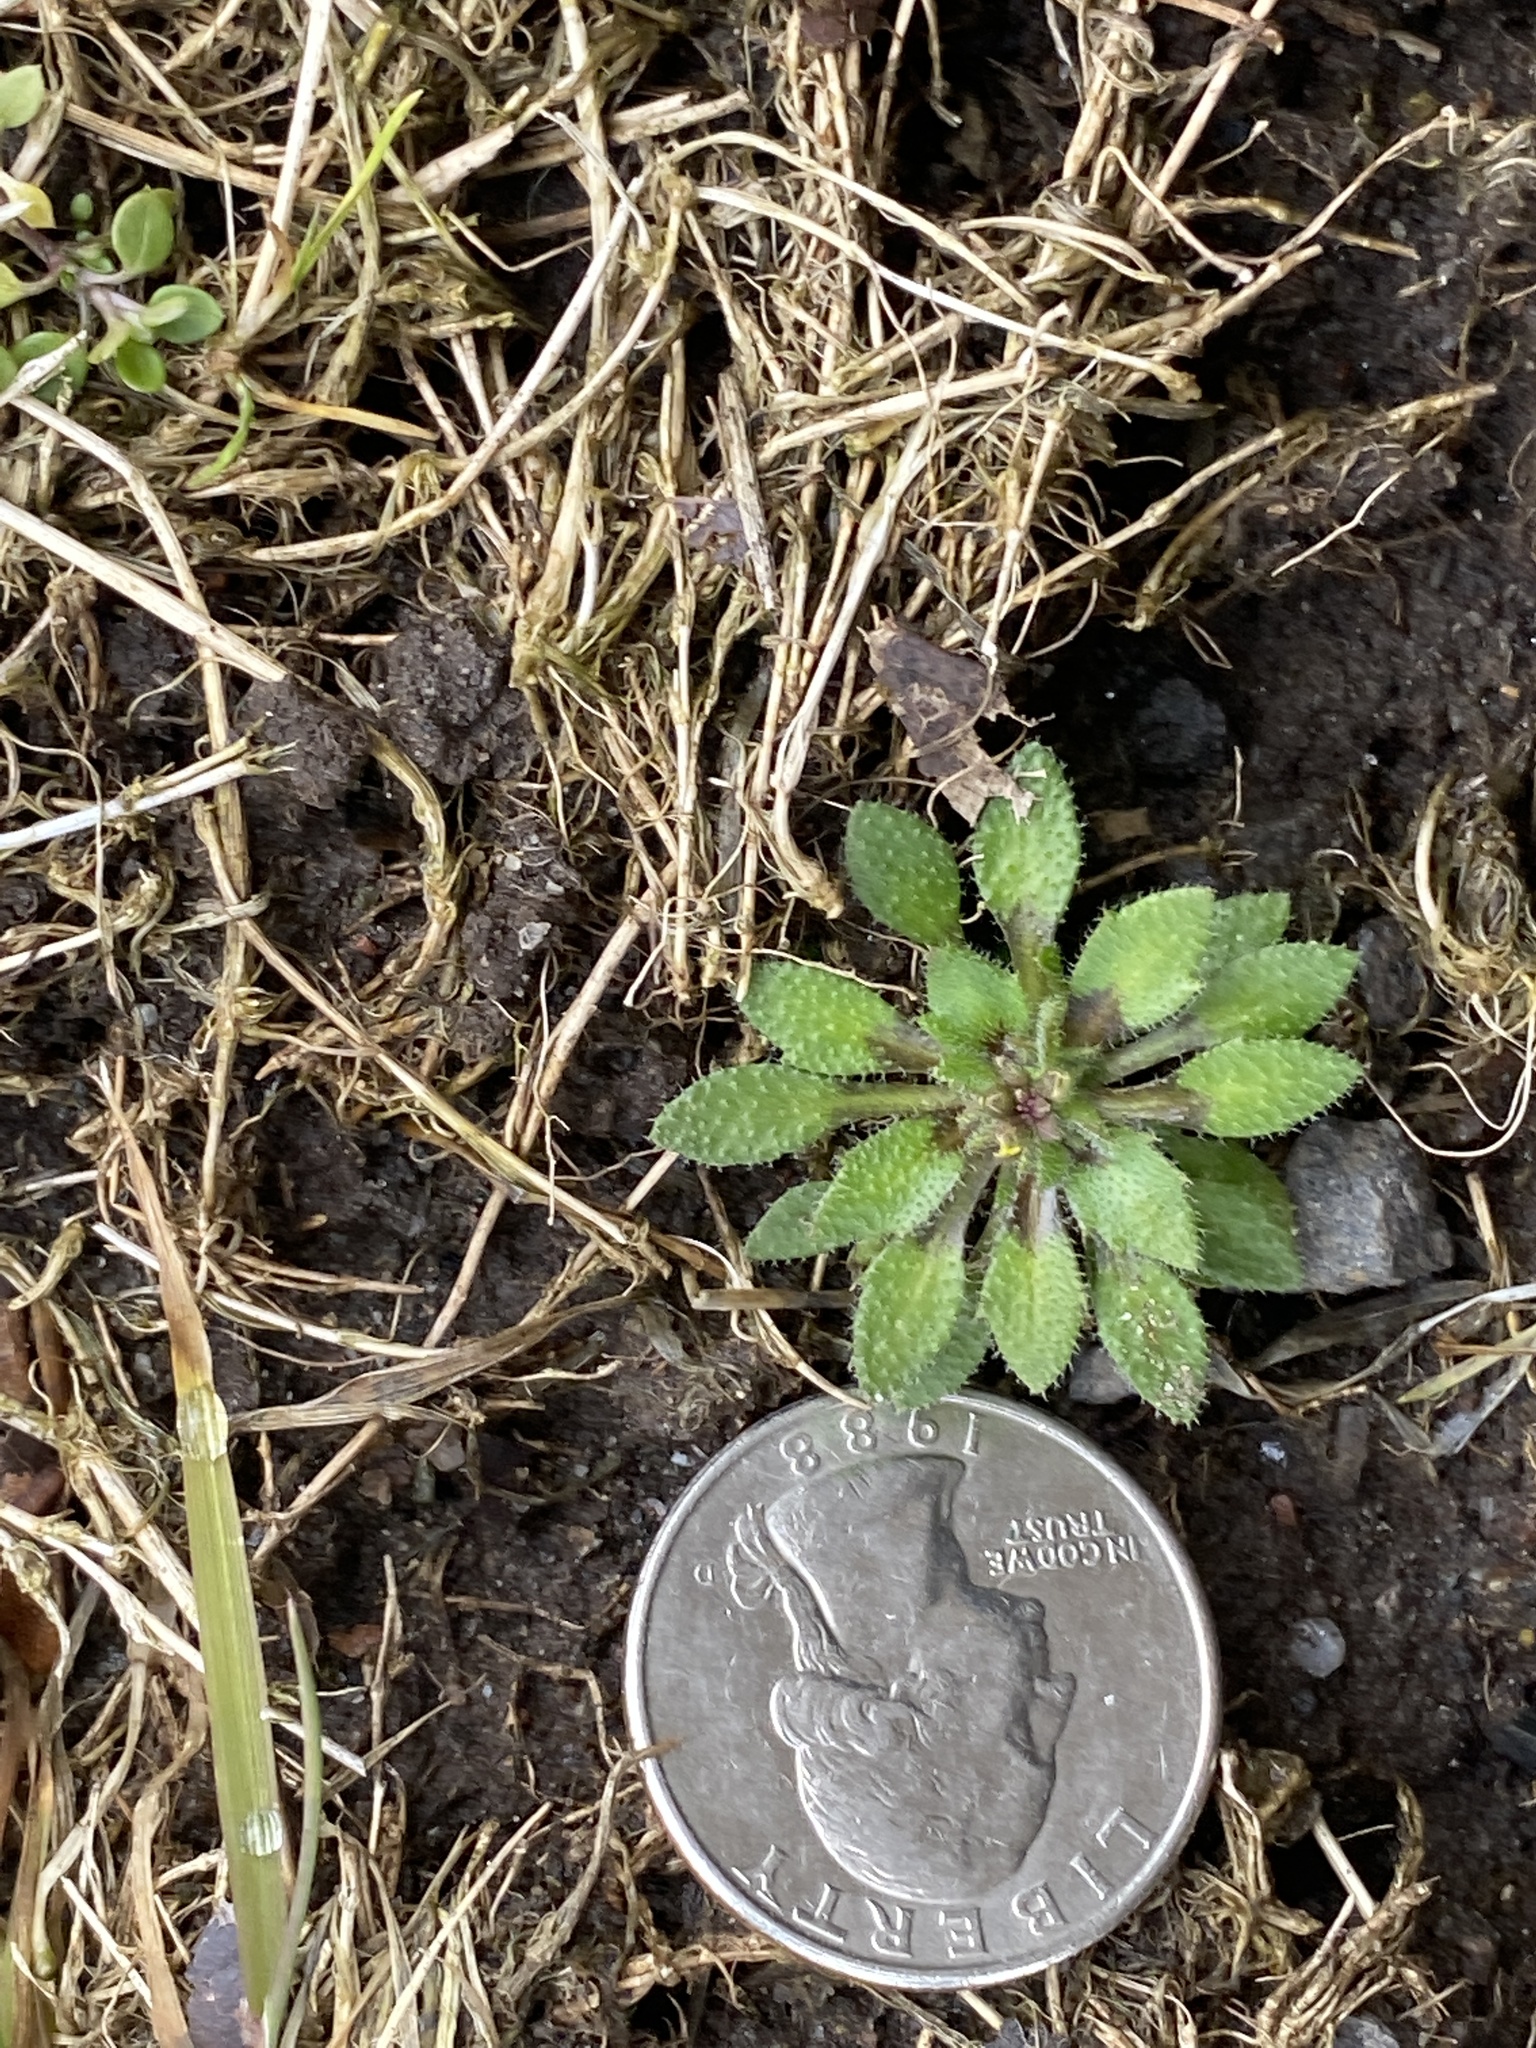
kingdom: Plantae
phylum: Tracheophyta
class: Magnoliopsida
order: Brassicales
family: Brassicaceae
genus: Draba
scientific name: Draba verna
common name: Spring draba
